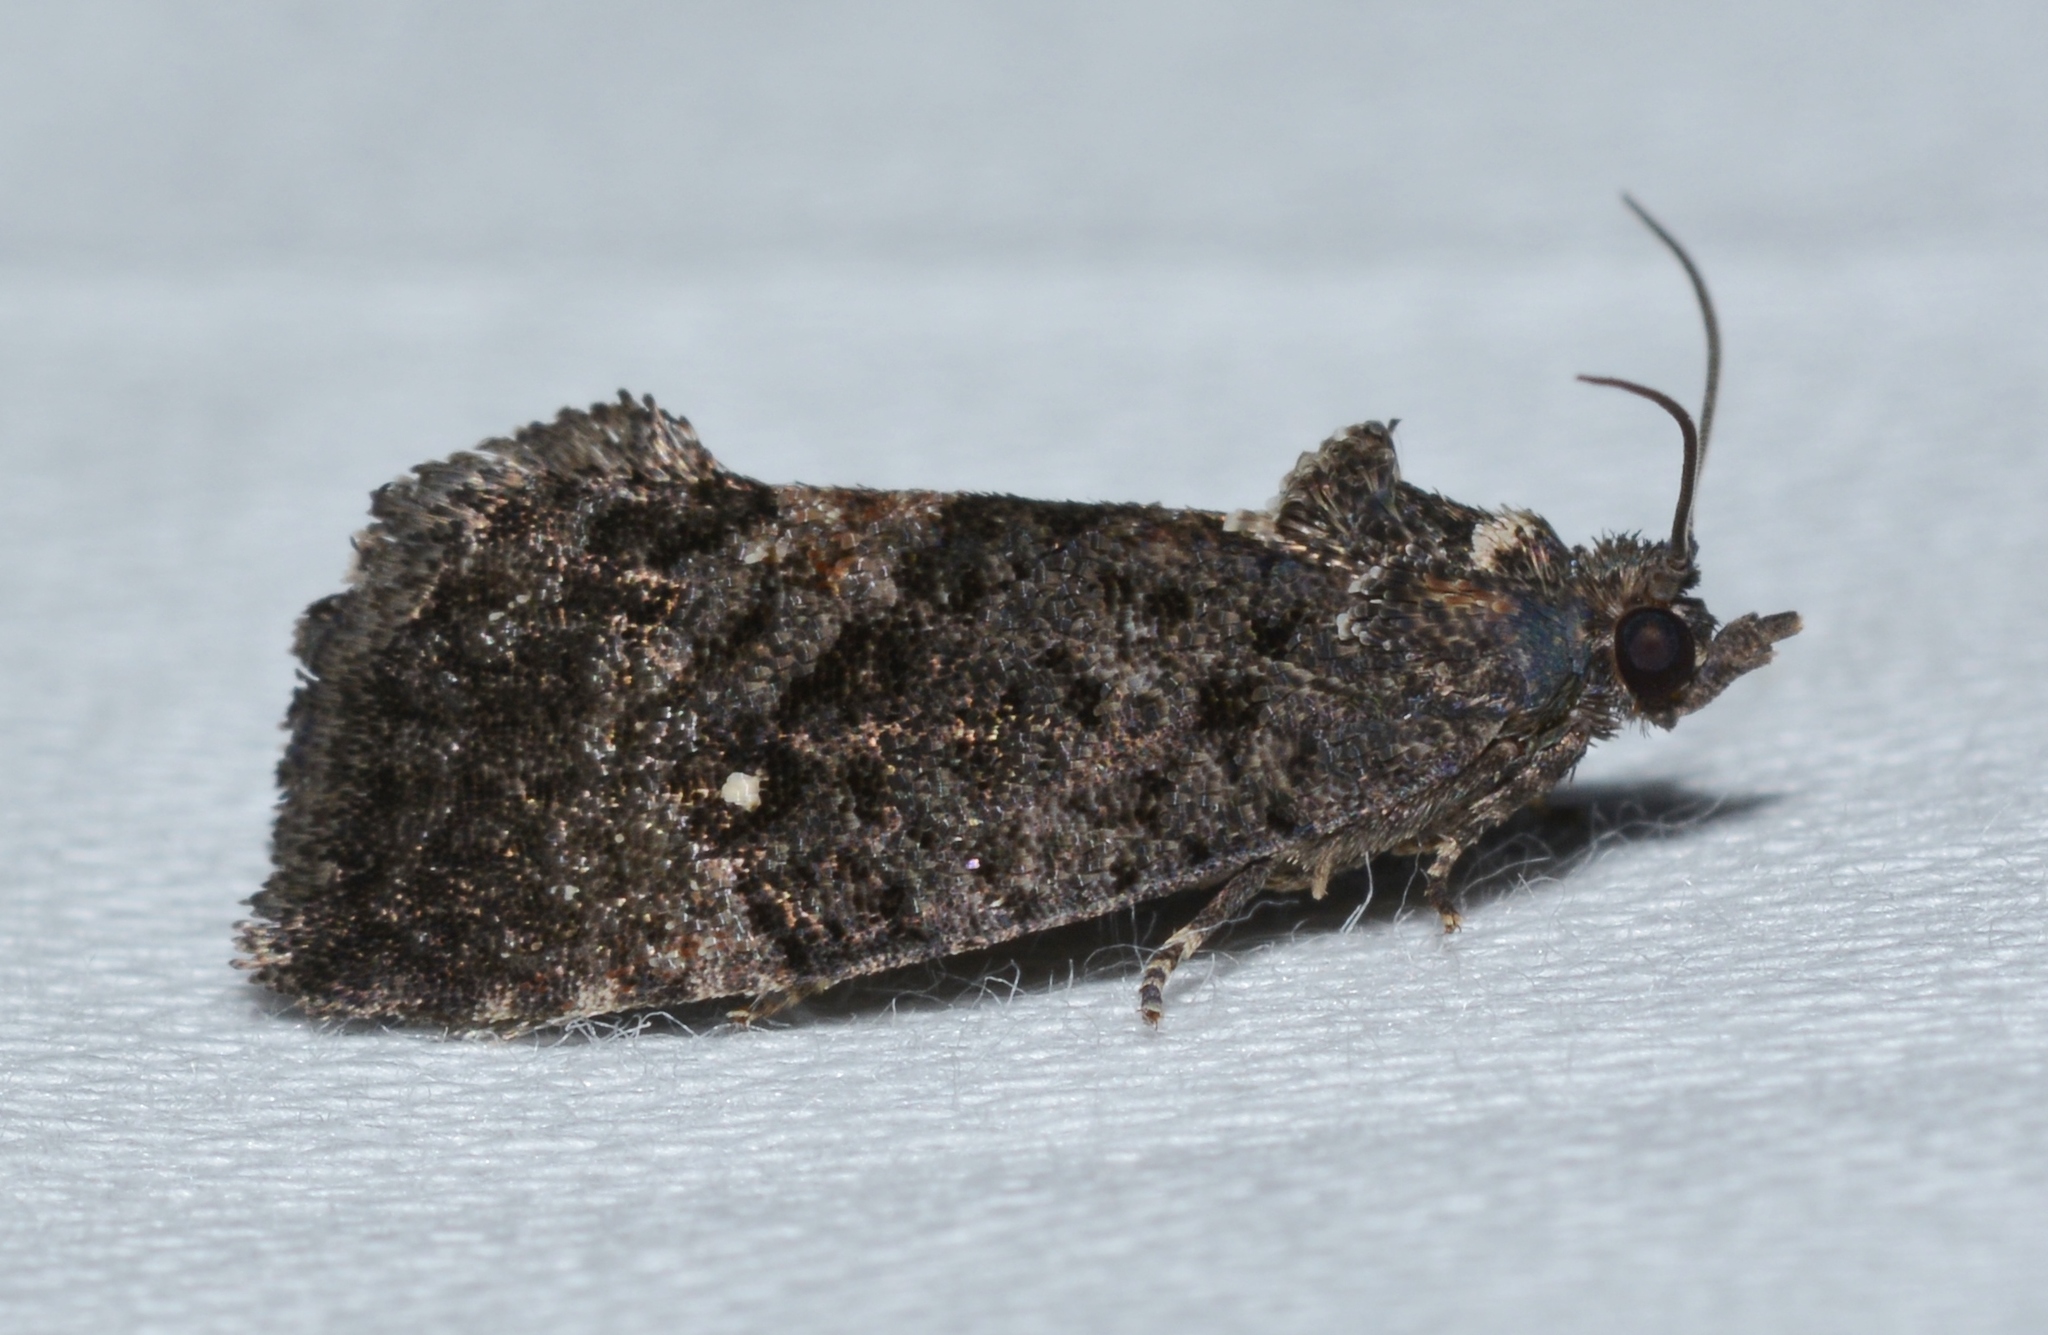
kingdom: Animalia
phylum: Arthropoda
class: Insecta
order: Lepidoptera
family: Tortricidae
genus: Gymnandrosoma
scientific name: Gymnandrosoma punctidiscanum
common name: Dotted ecdytolopha moth
